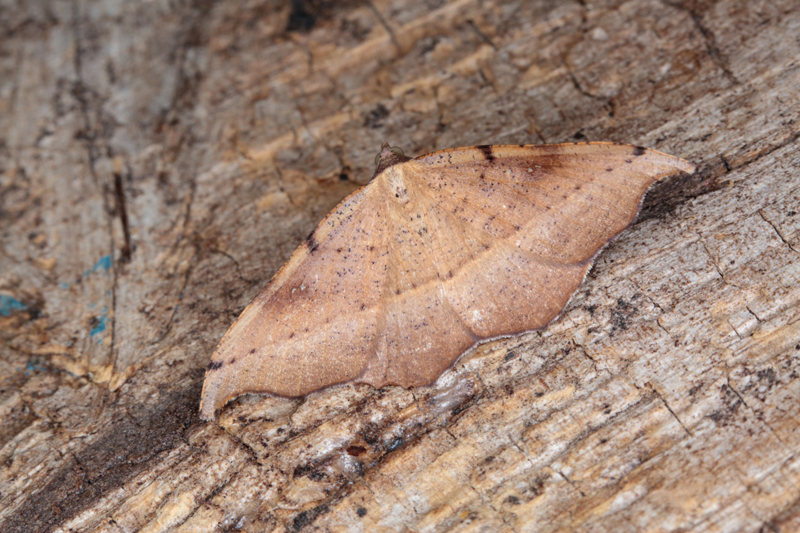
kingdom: Animalia
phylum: Arthropoda
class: Insecta
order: Lepidoptera
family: Geometridae
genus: Sarisa
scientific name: Sarisa muriferata
